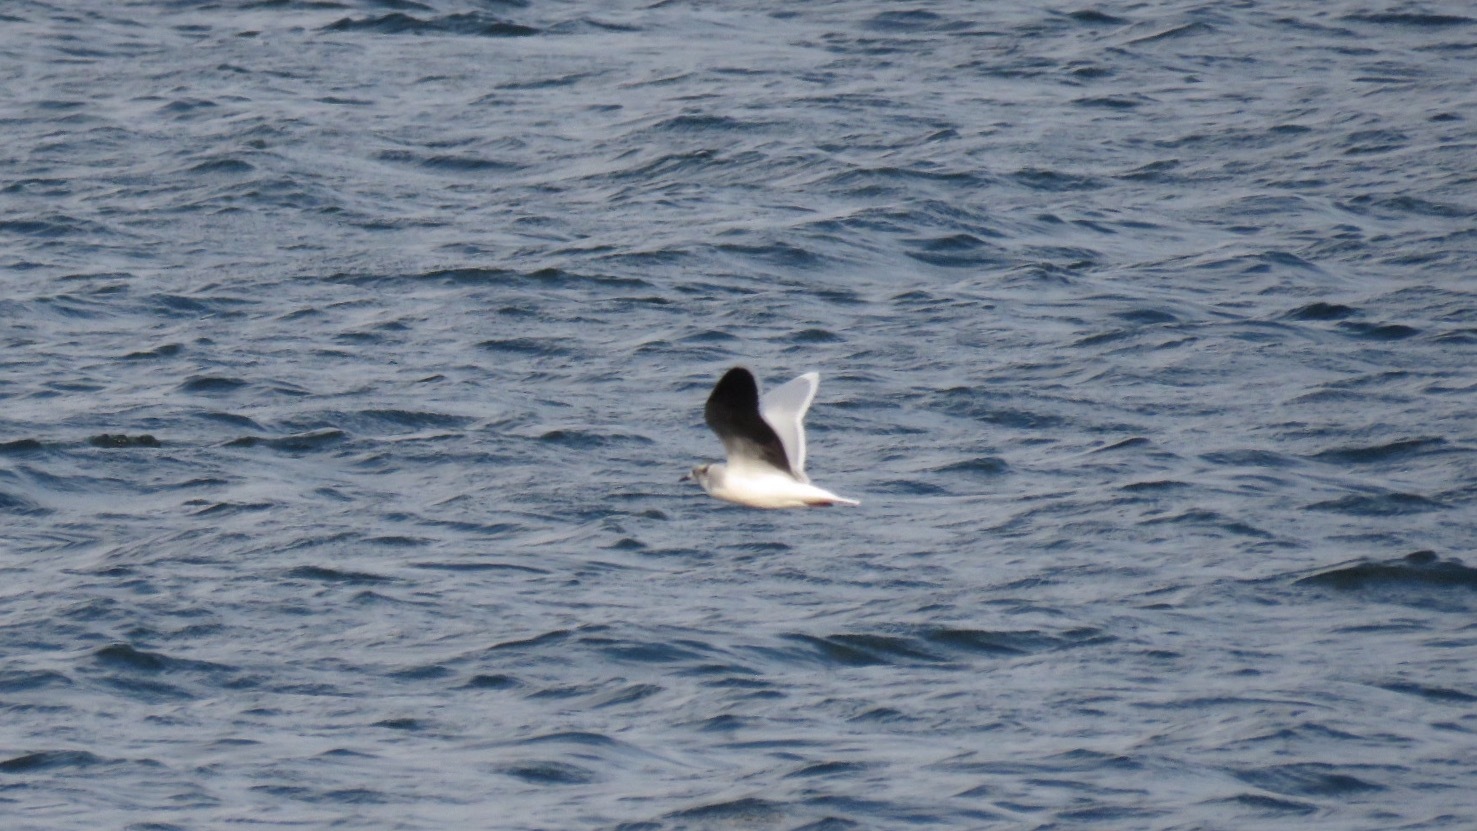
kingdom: Animalia
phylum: Chordata
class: Aves
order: Charadriiformes
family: Laridae
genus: Hydrocoloeus
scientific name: Hydrocoloeus minutus
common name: Little gull
